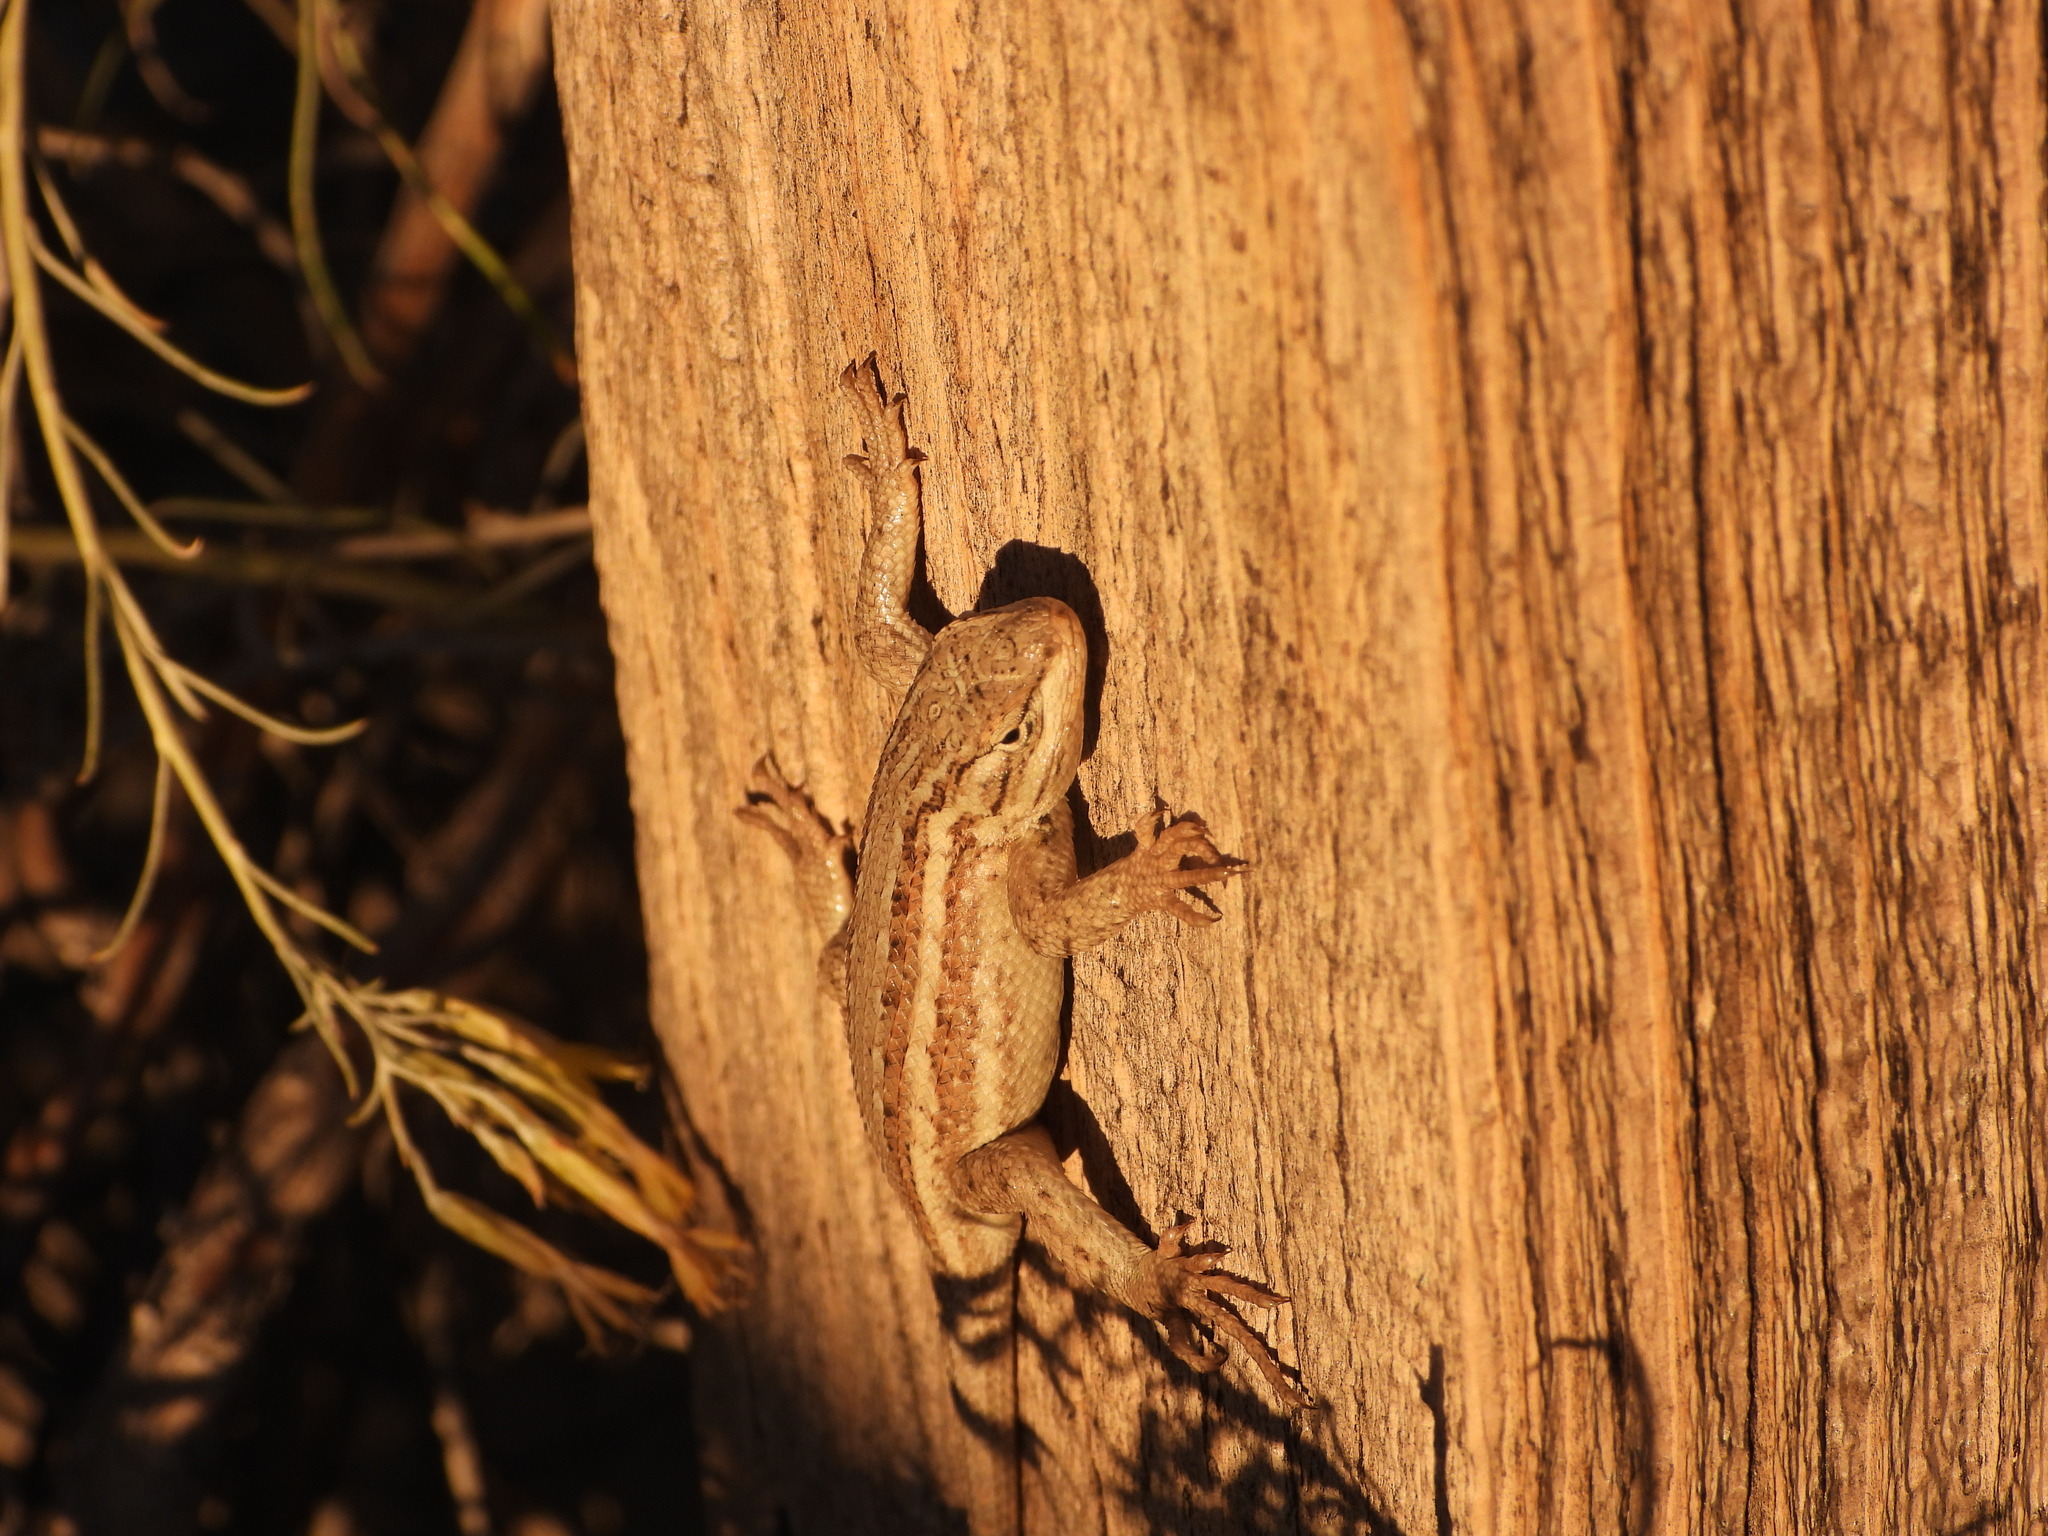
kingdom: Animalia
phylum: Chordata
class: Squamata
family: Phrynosomatidae
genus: Sceloporus
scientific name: Sceloporus cowlesi
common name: White sands prairie lizard
